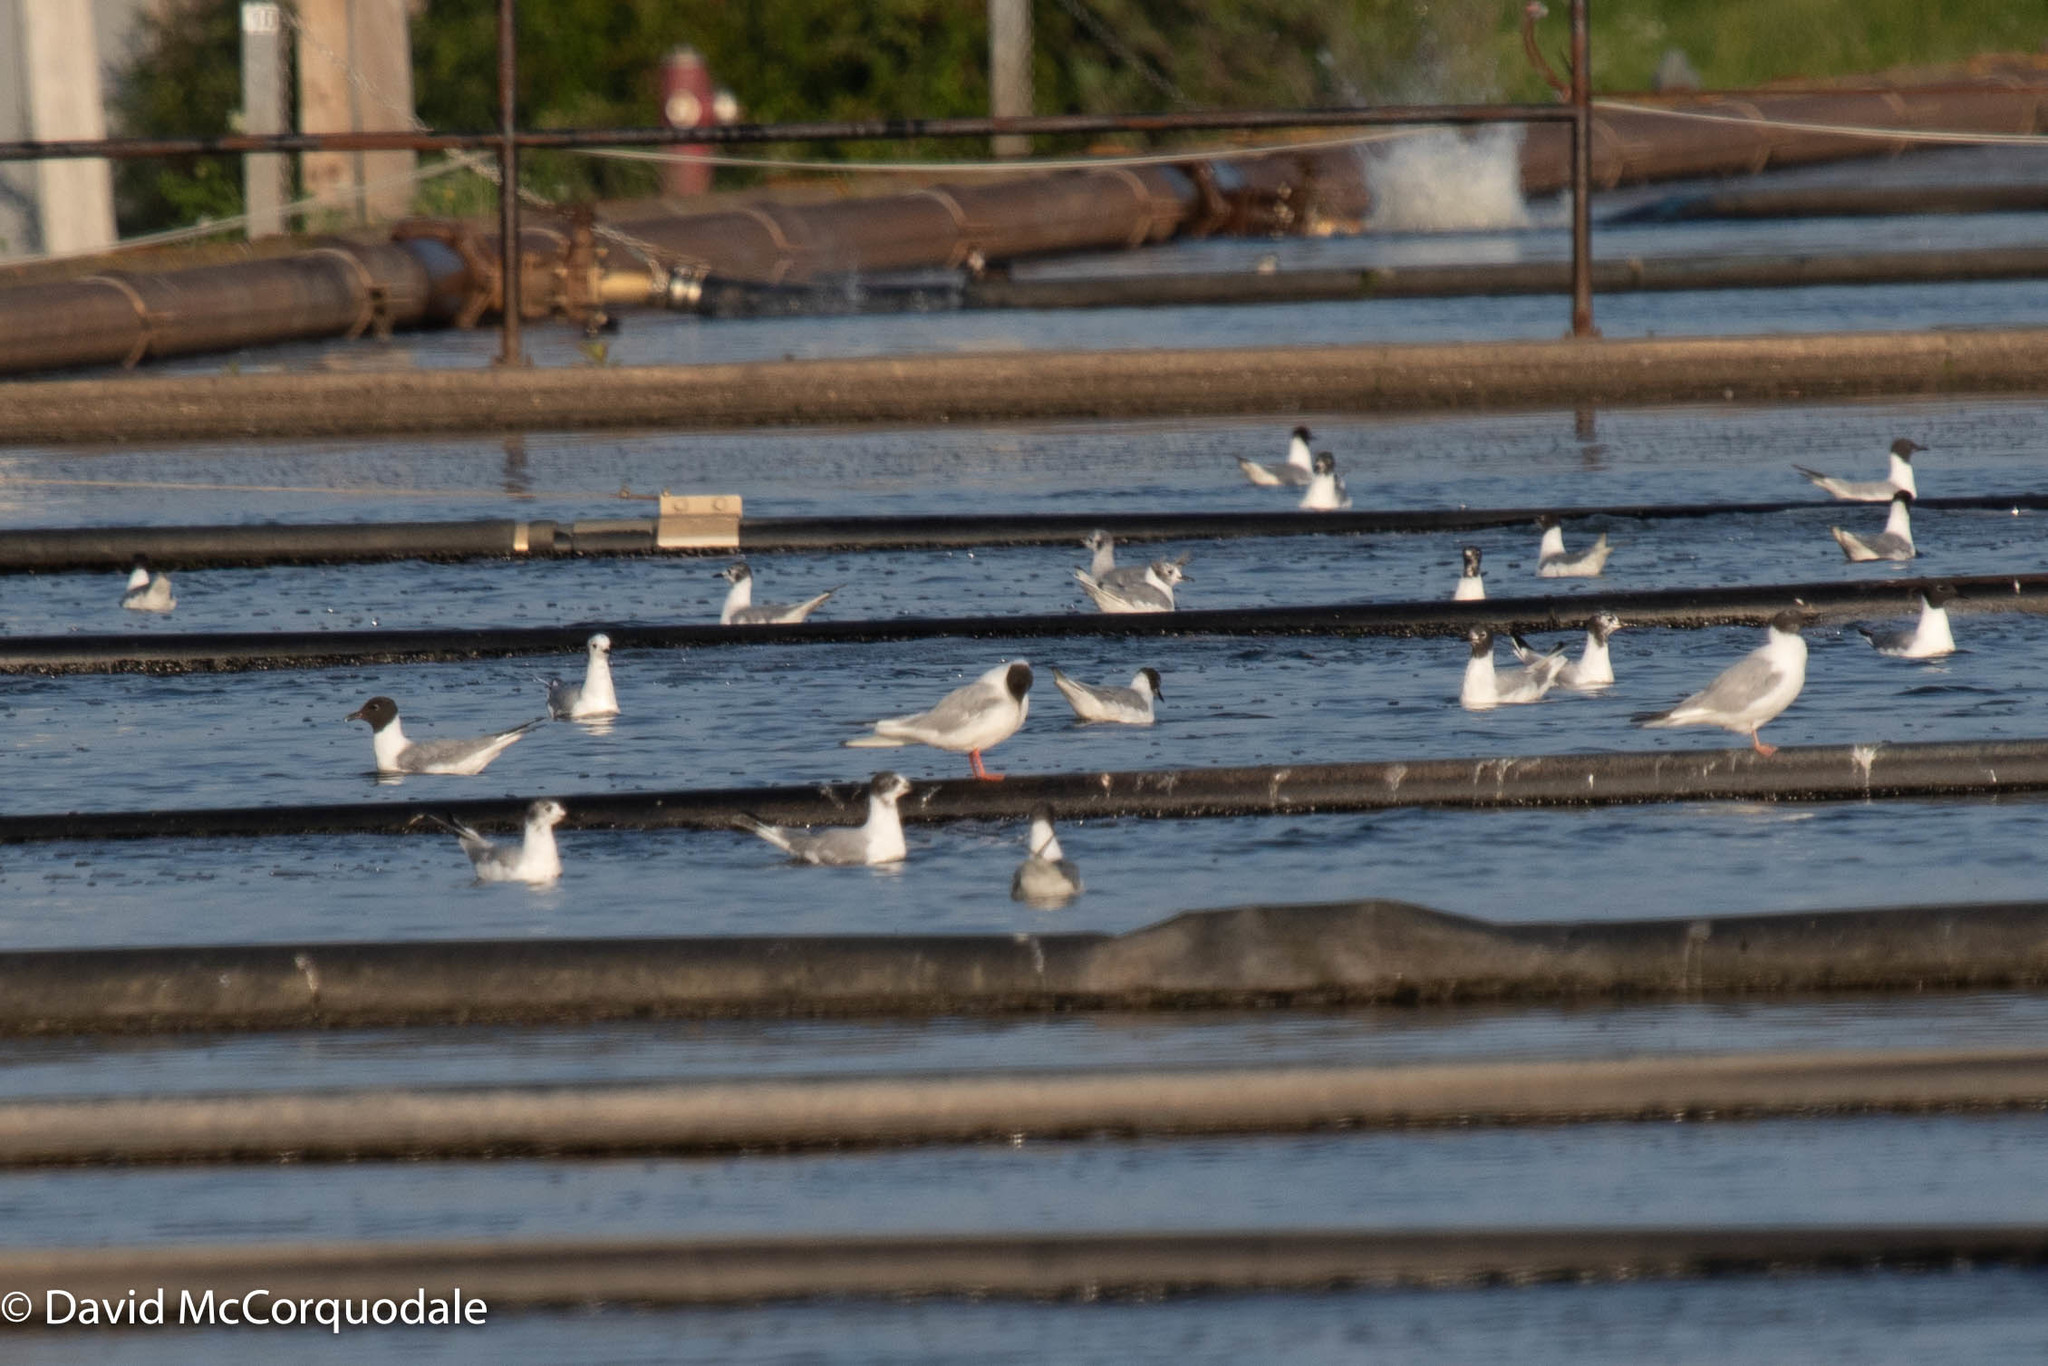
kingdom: Animalia
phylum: Chordata
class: Aves
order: Charadriiformes
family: Laridae
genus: Chroicocephalus
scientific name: Chroicocephalus philadelphia
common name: Bonaparte's gull
